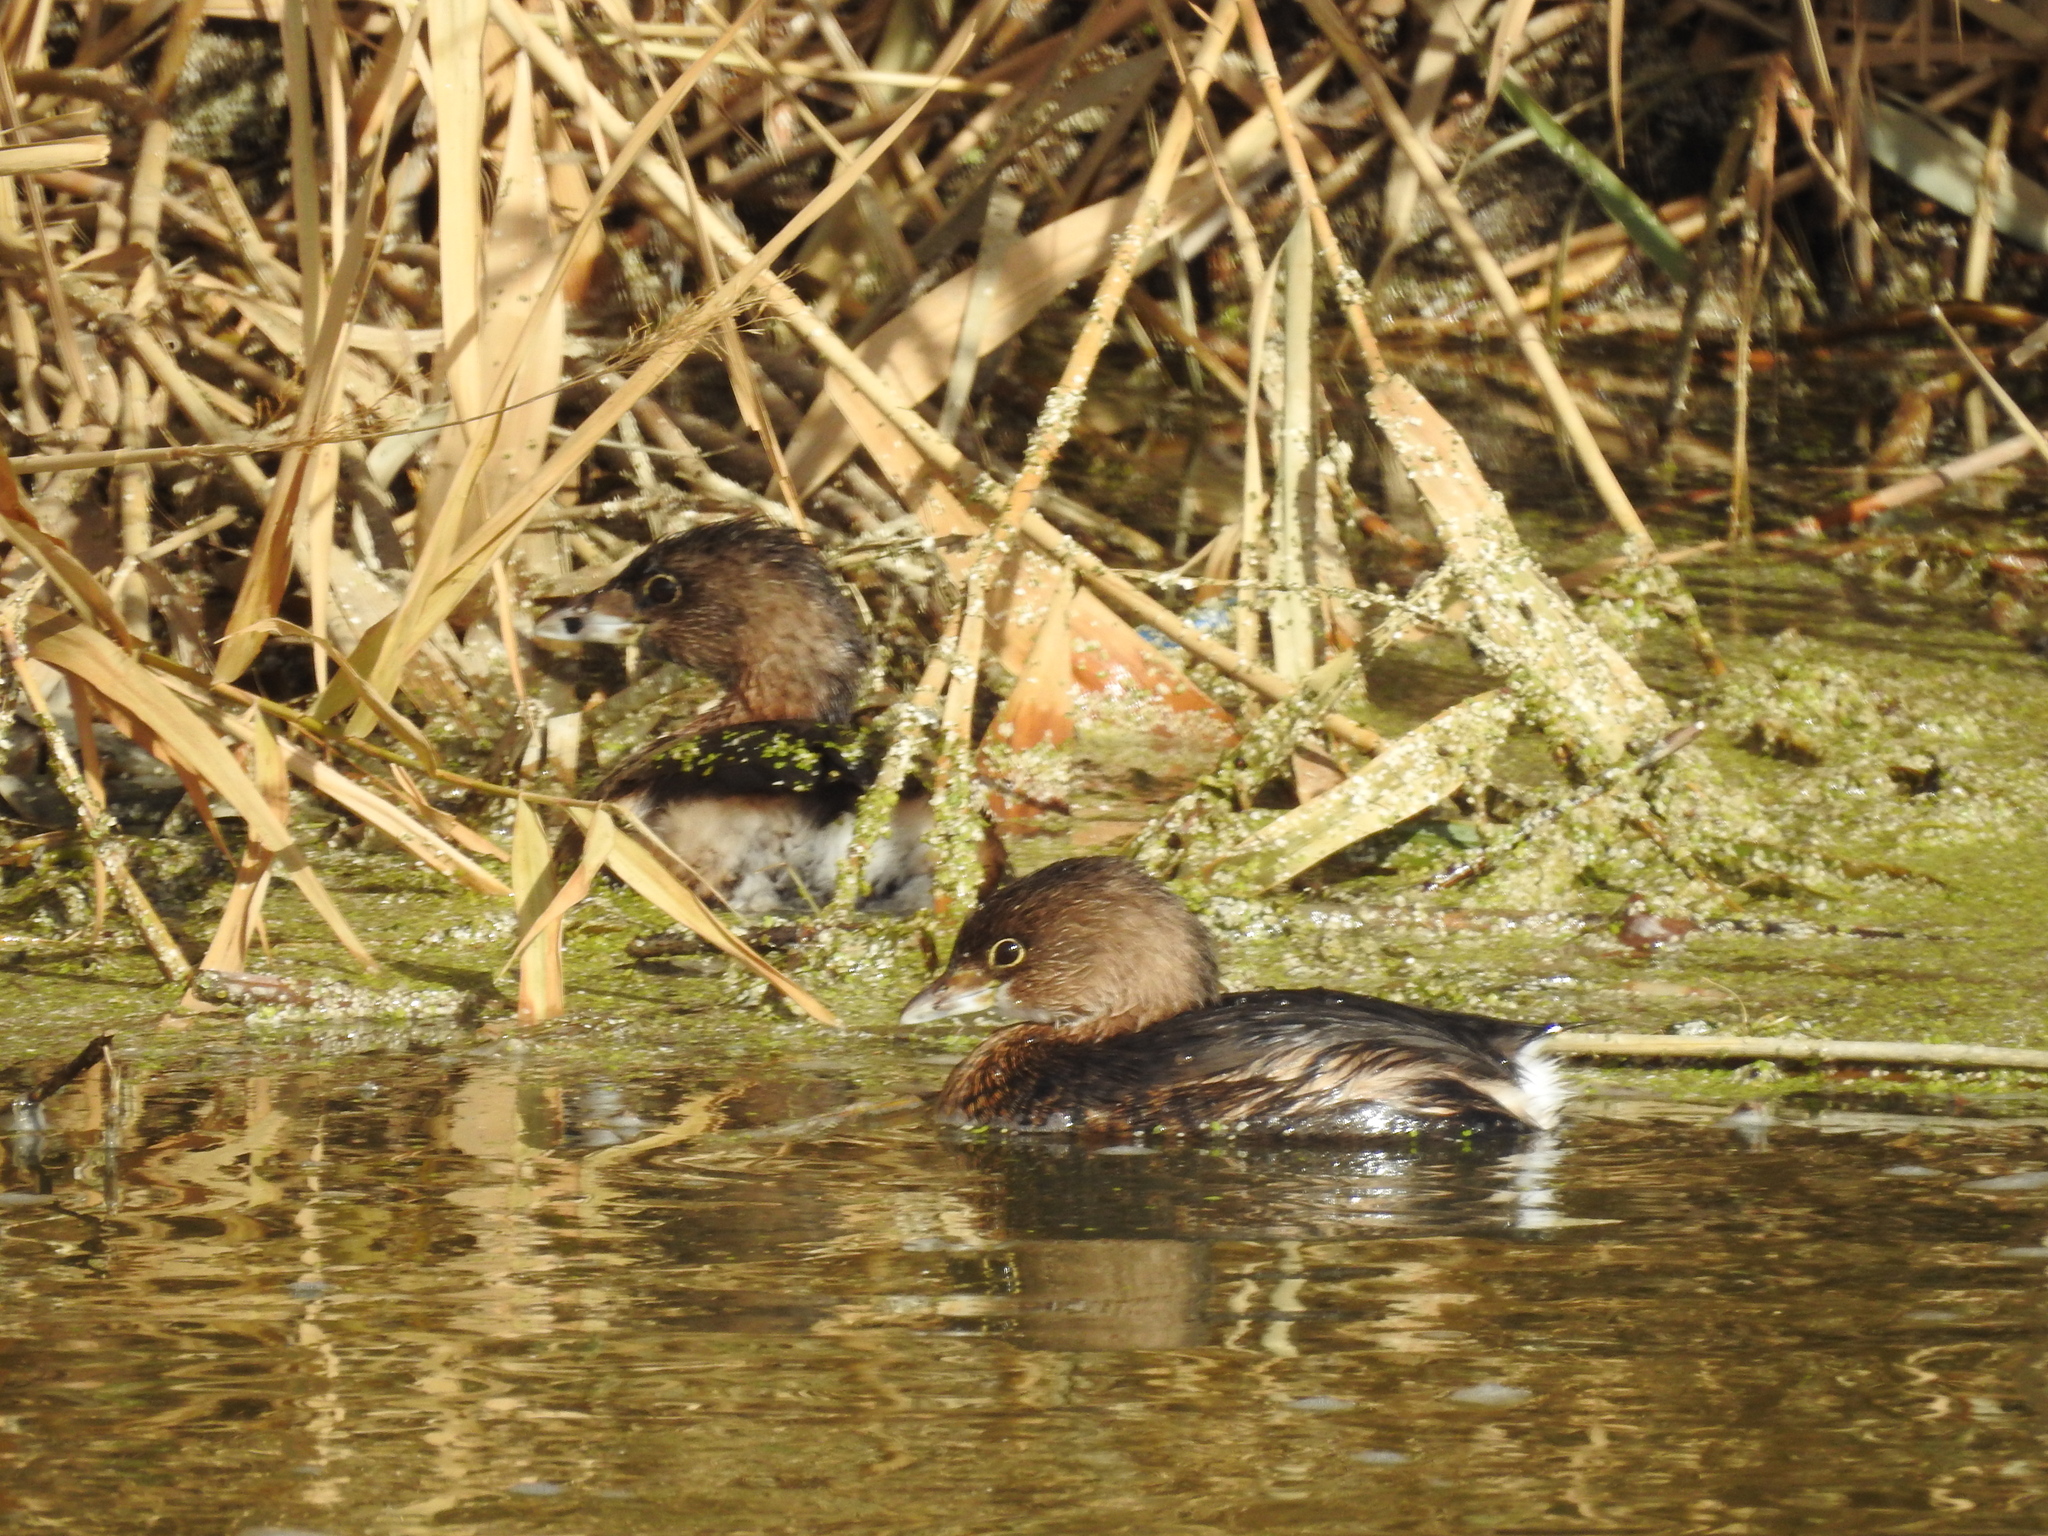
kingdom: Animalia
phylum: Chordata
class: Aves
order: Podicipediformes
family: Podicipedidae
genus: Podilymbus
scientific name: Podilymbus podiceps
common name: Pied-billed grebe
